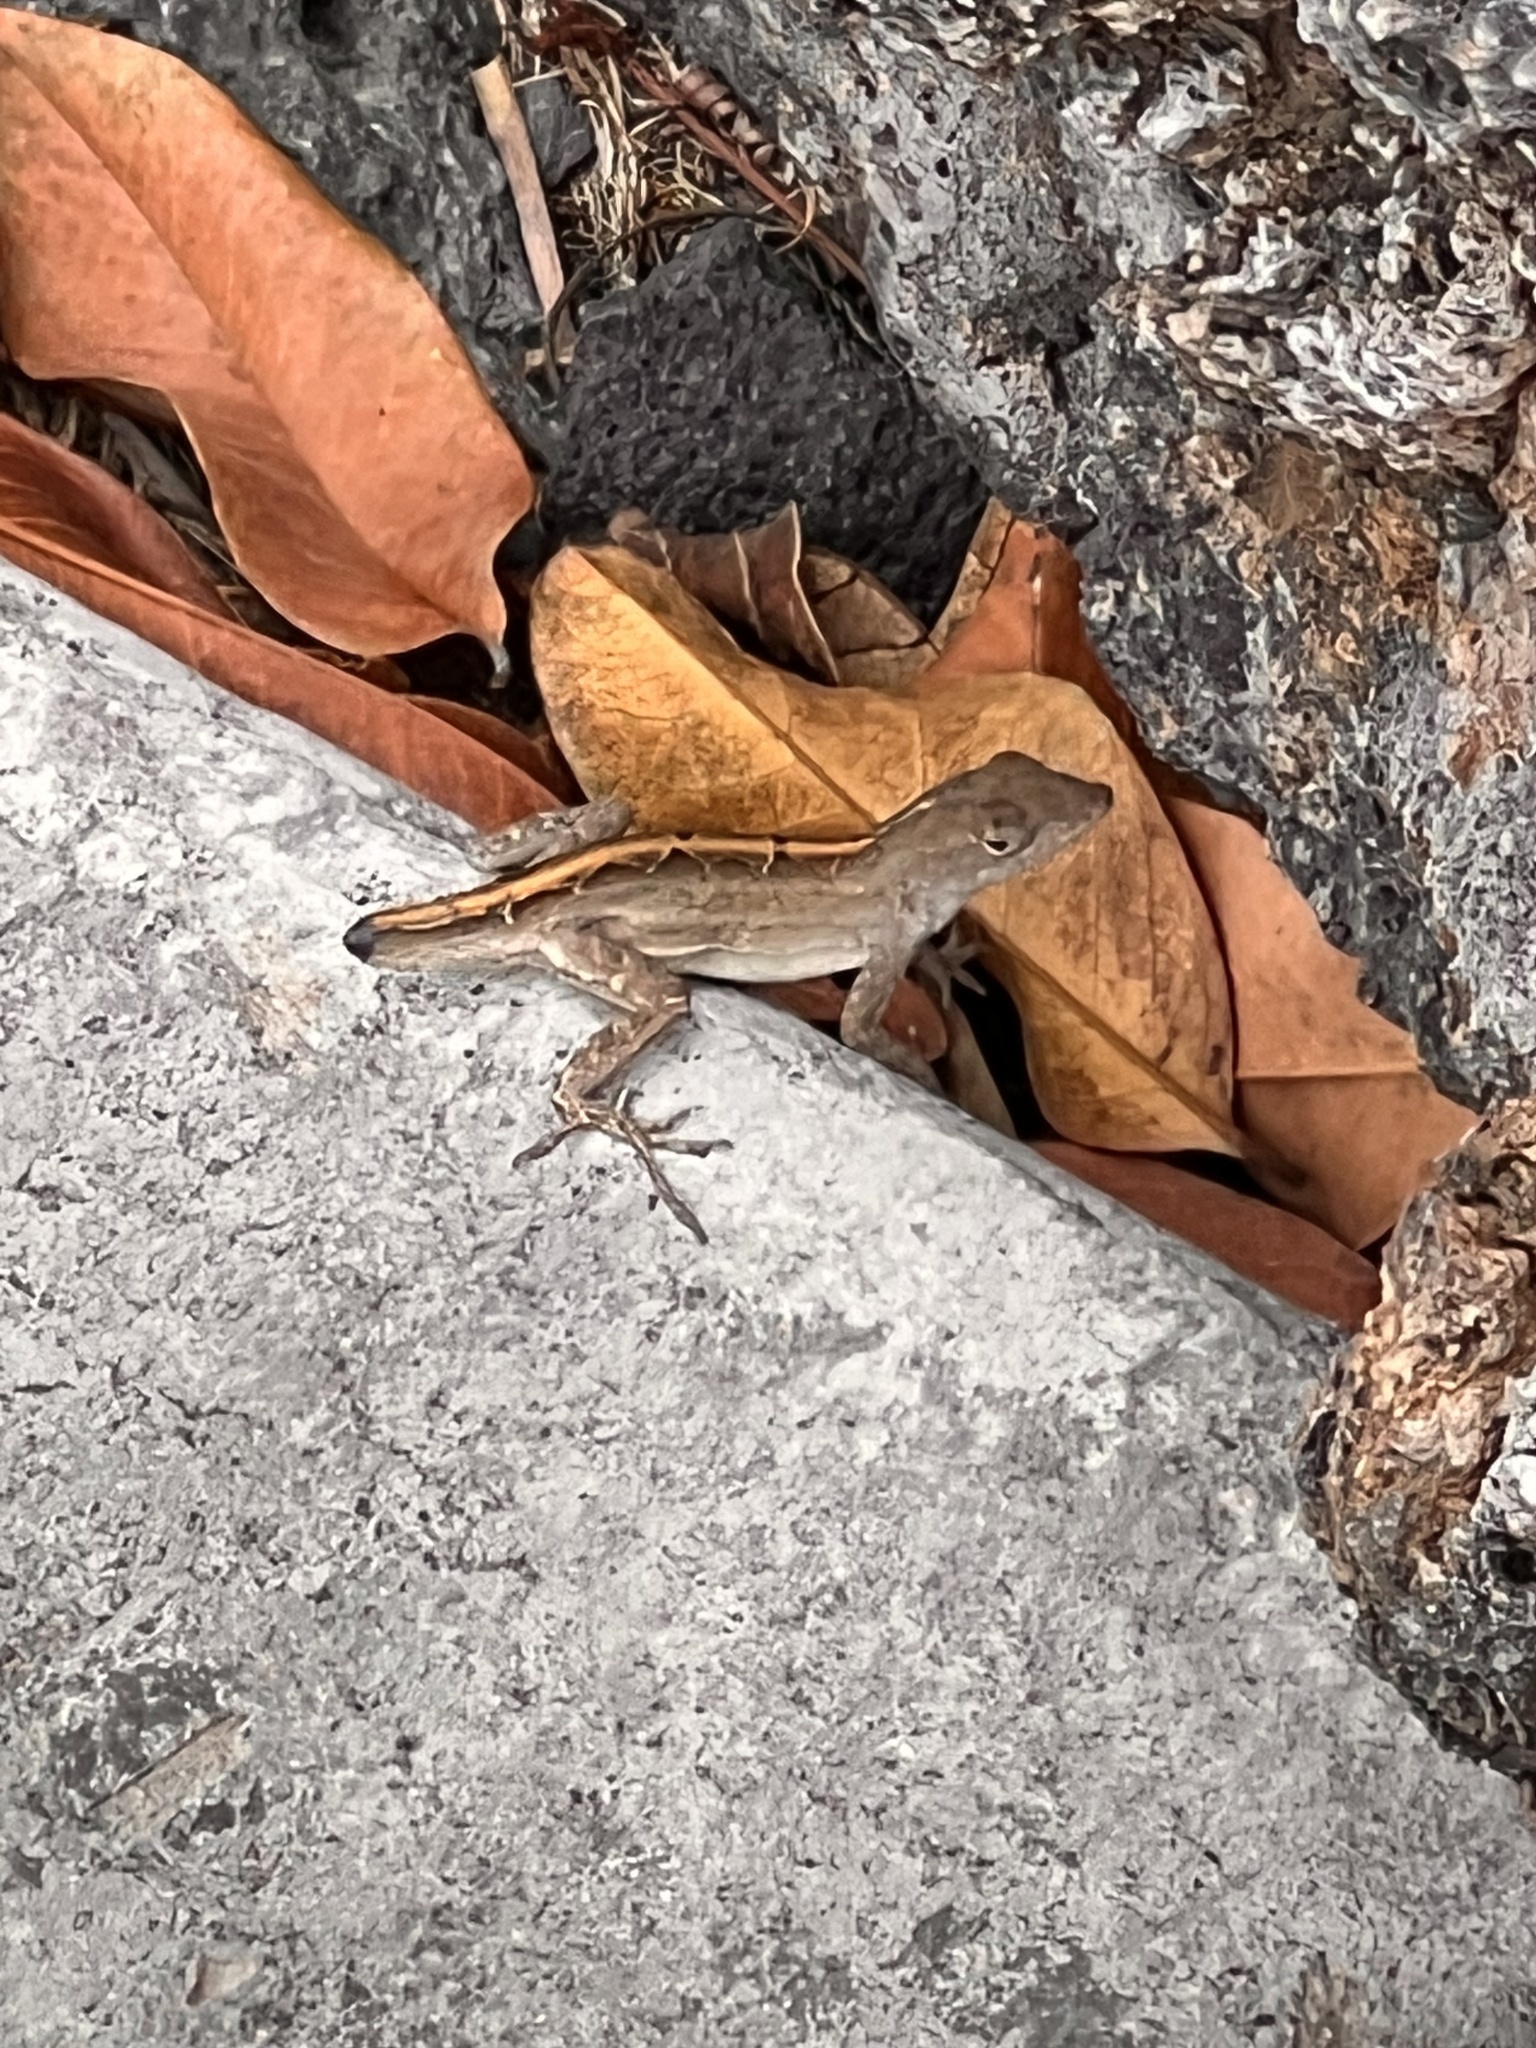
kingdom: Animalia
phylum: Chordata
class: Squamata
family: Dactyloidae
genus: Anolis
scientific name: Anolis sagrei
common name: Brown anole
